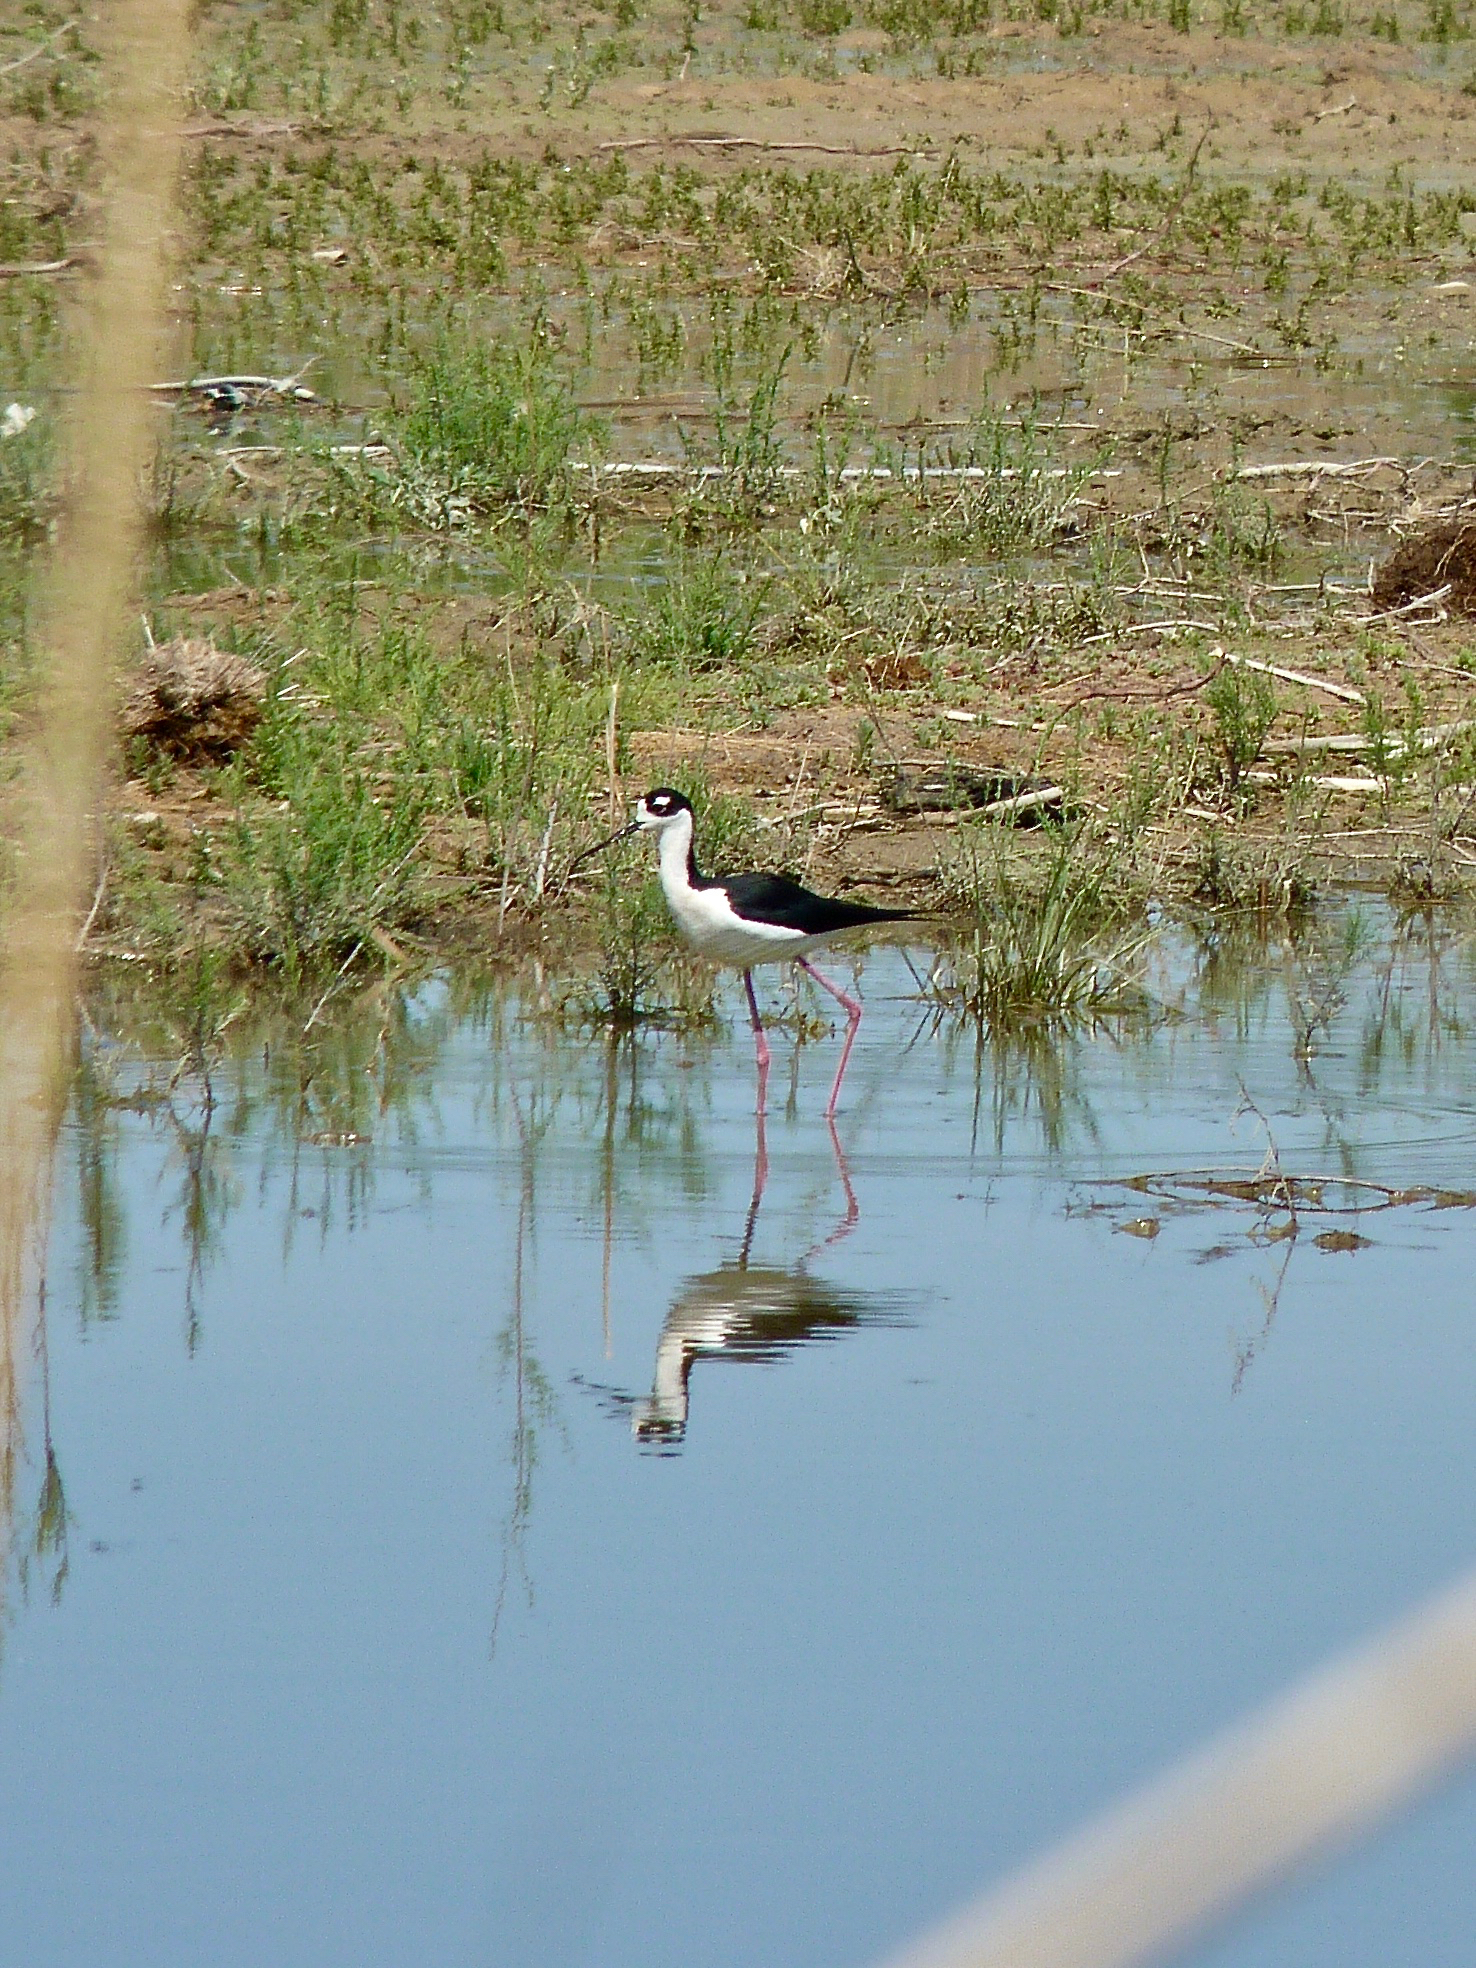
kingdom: Animalia
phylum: Chordata
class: Aves
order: Charadriiformes
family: Recurvirostridae
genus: Himantopus
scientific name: Himantopus mexicanus
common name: Black-necked stilt
